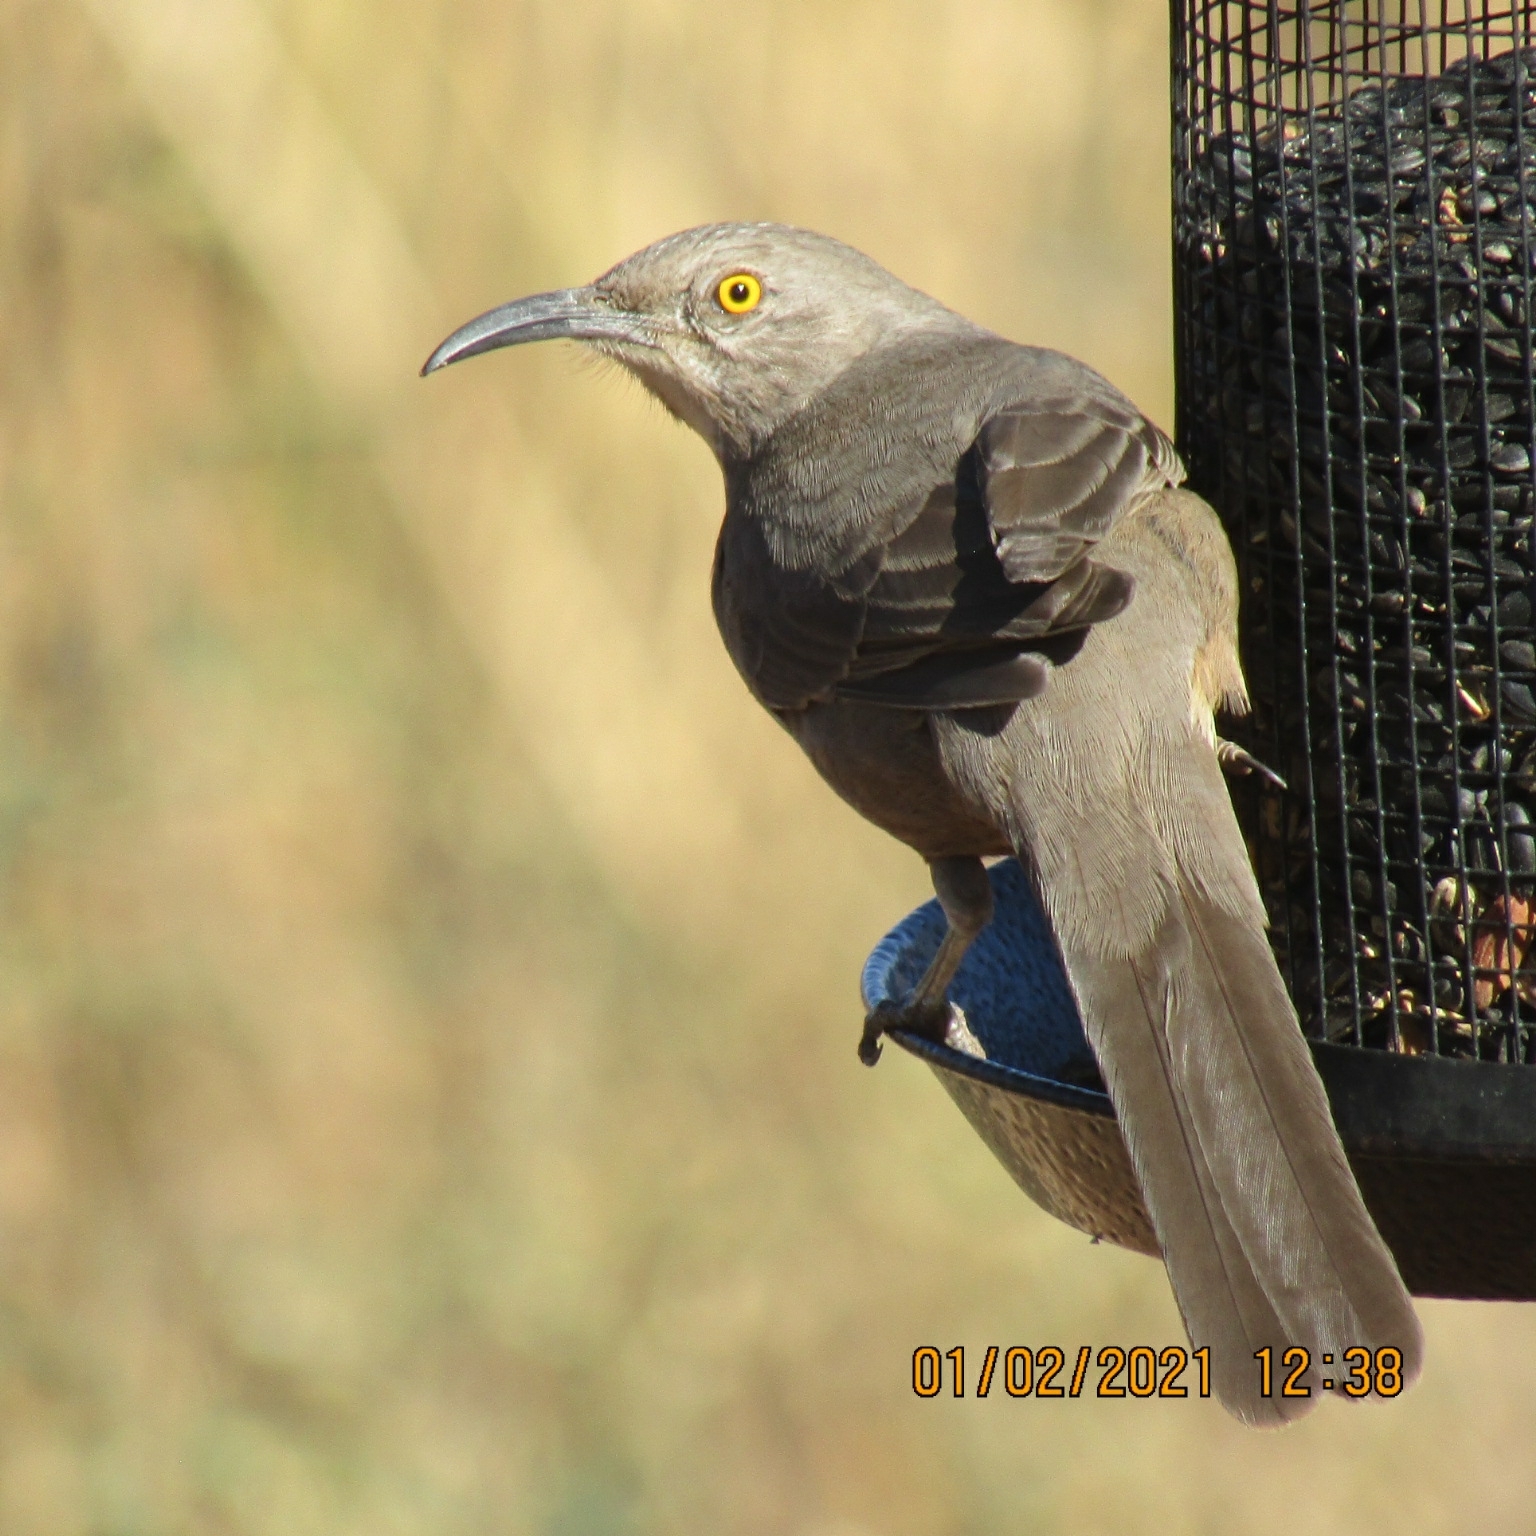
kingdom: Animalia
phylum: Chordata
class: Aves
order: Passeriformes
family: Mimidae
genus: Toxostoma
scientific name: Toxostoma curvirostre
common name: Curve-billed thrasher
